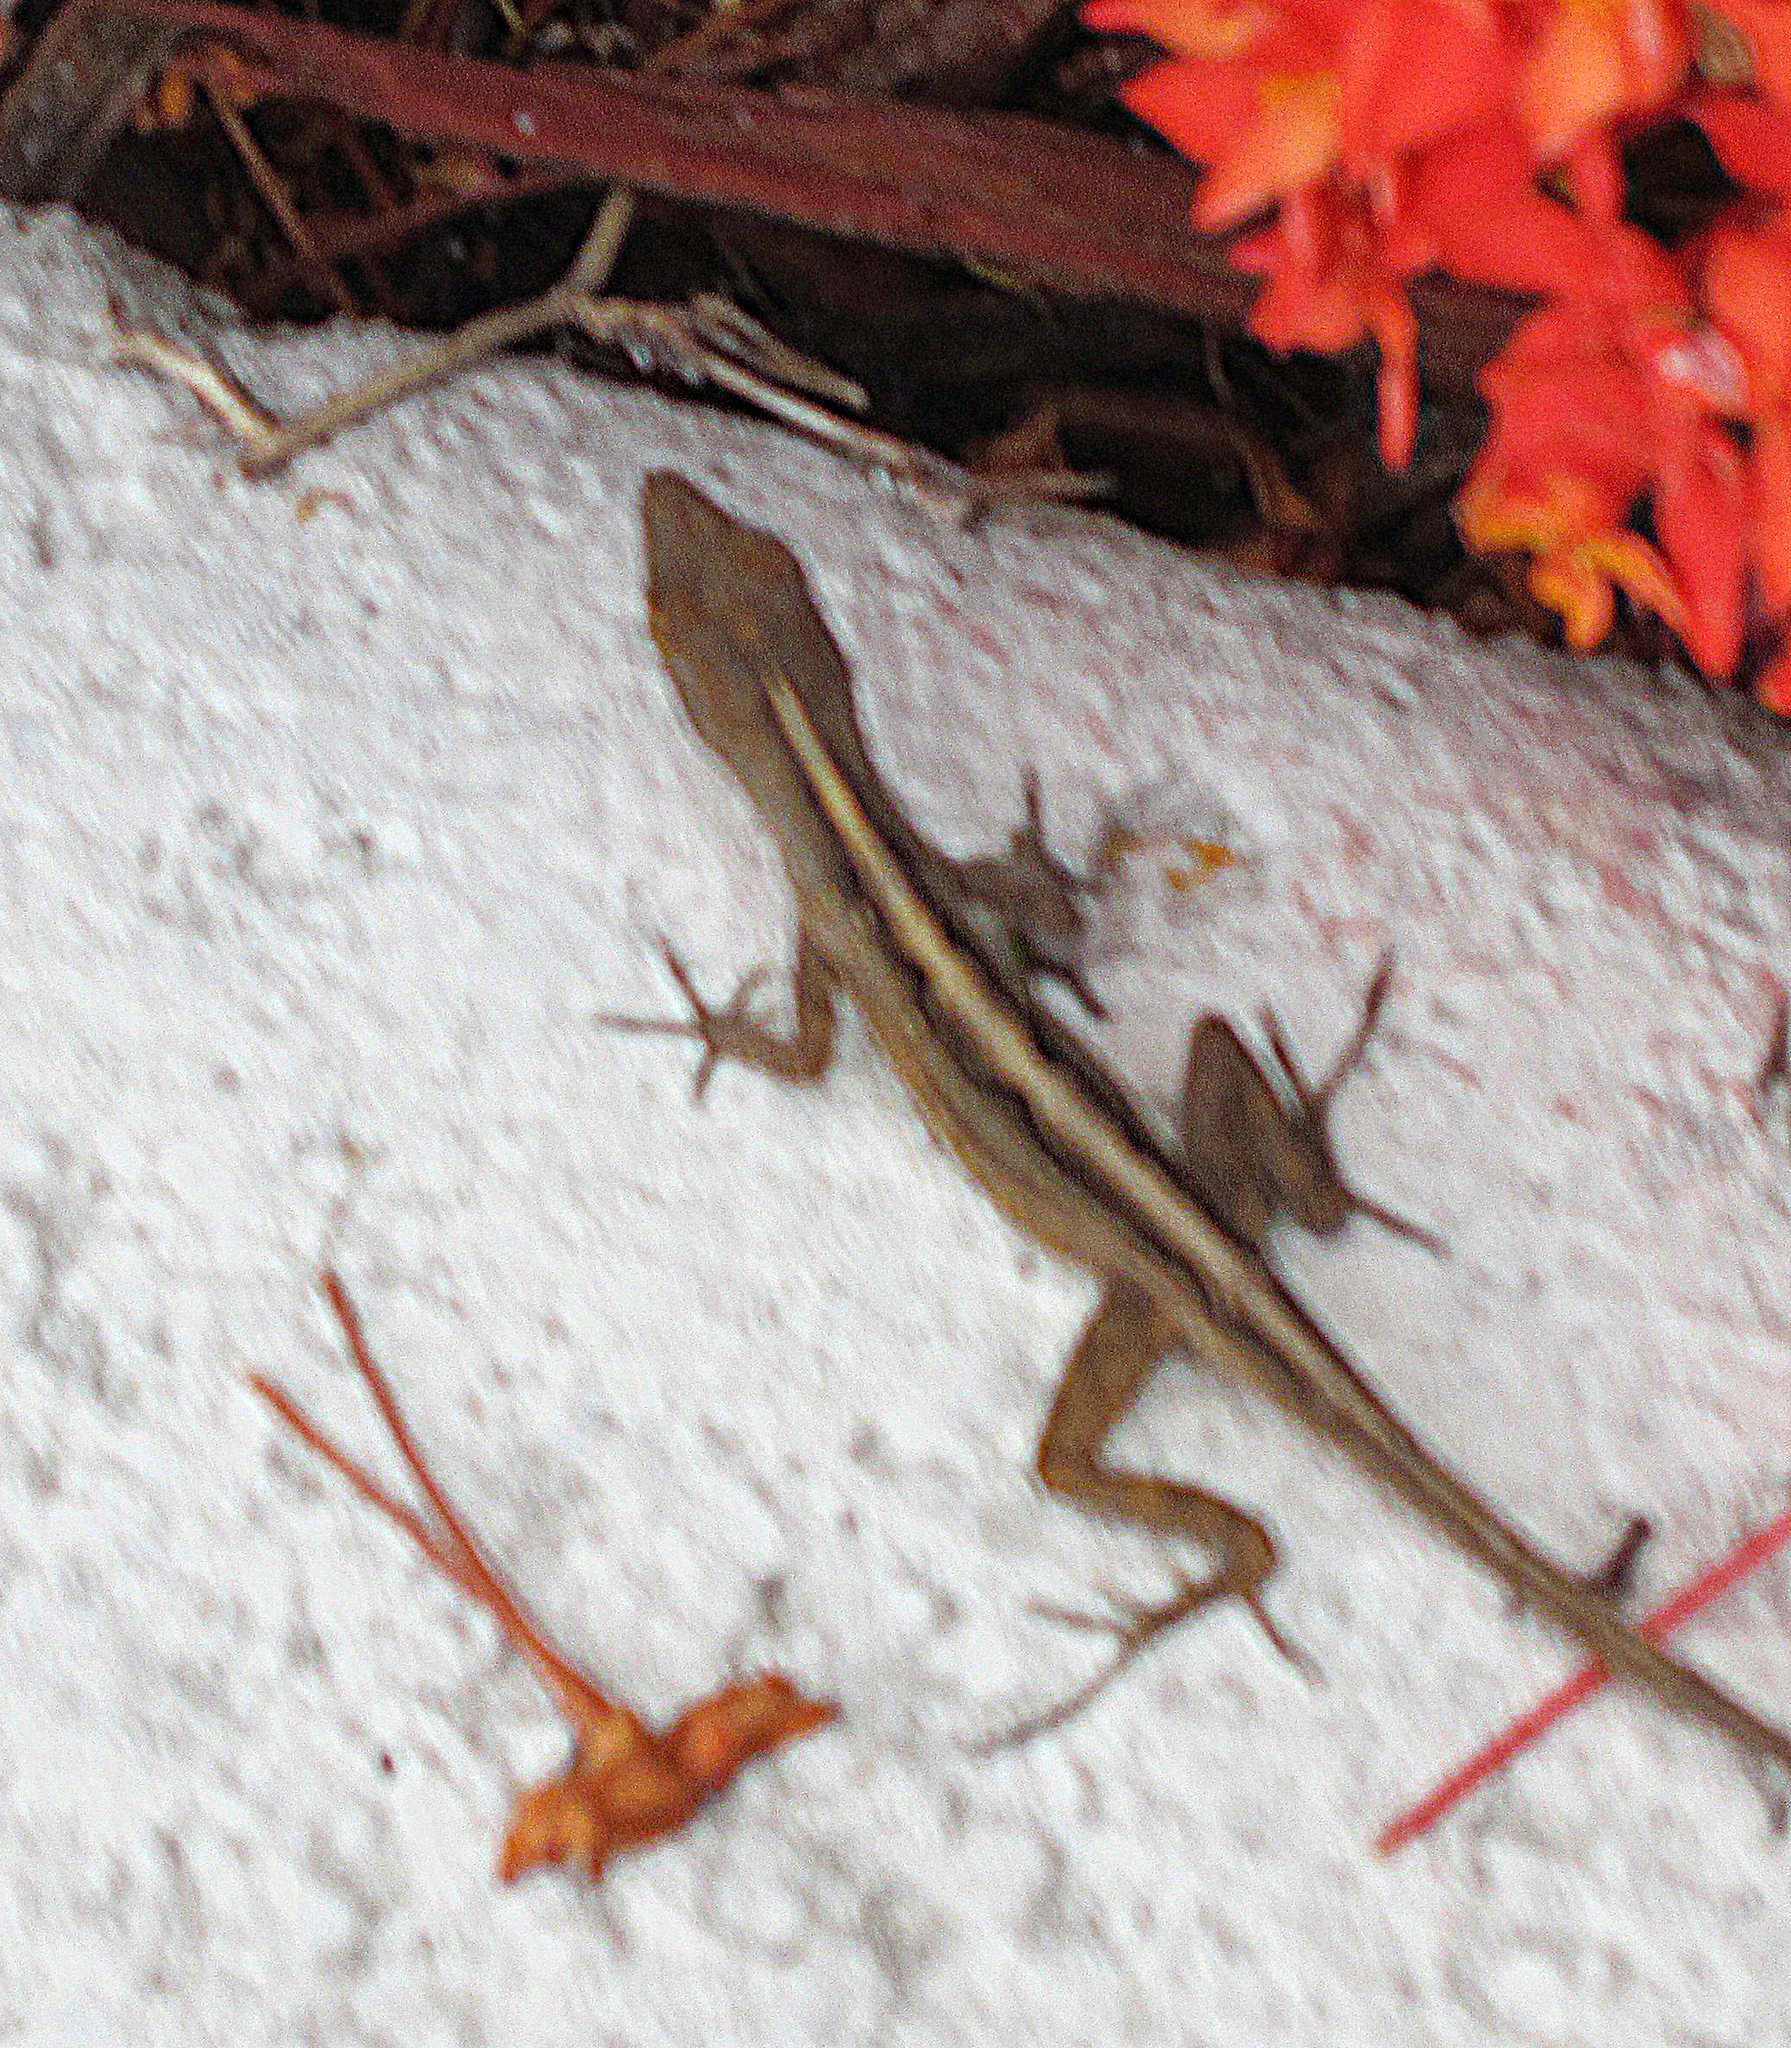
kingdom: Animalia
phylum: Chordata
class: Squamata
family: Dactyloidae
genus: Anolis
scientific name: Anolis sagrei
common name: Brown anole
